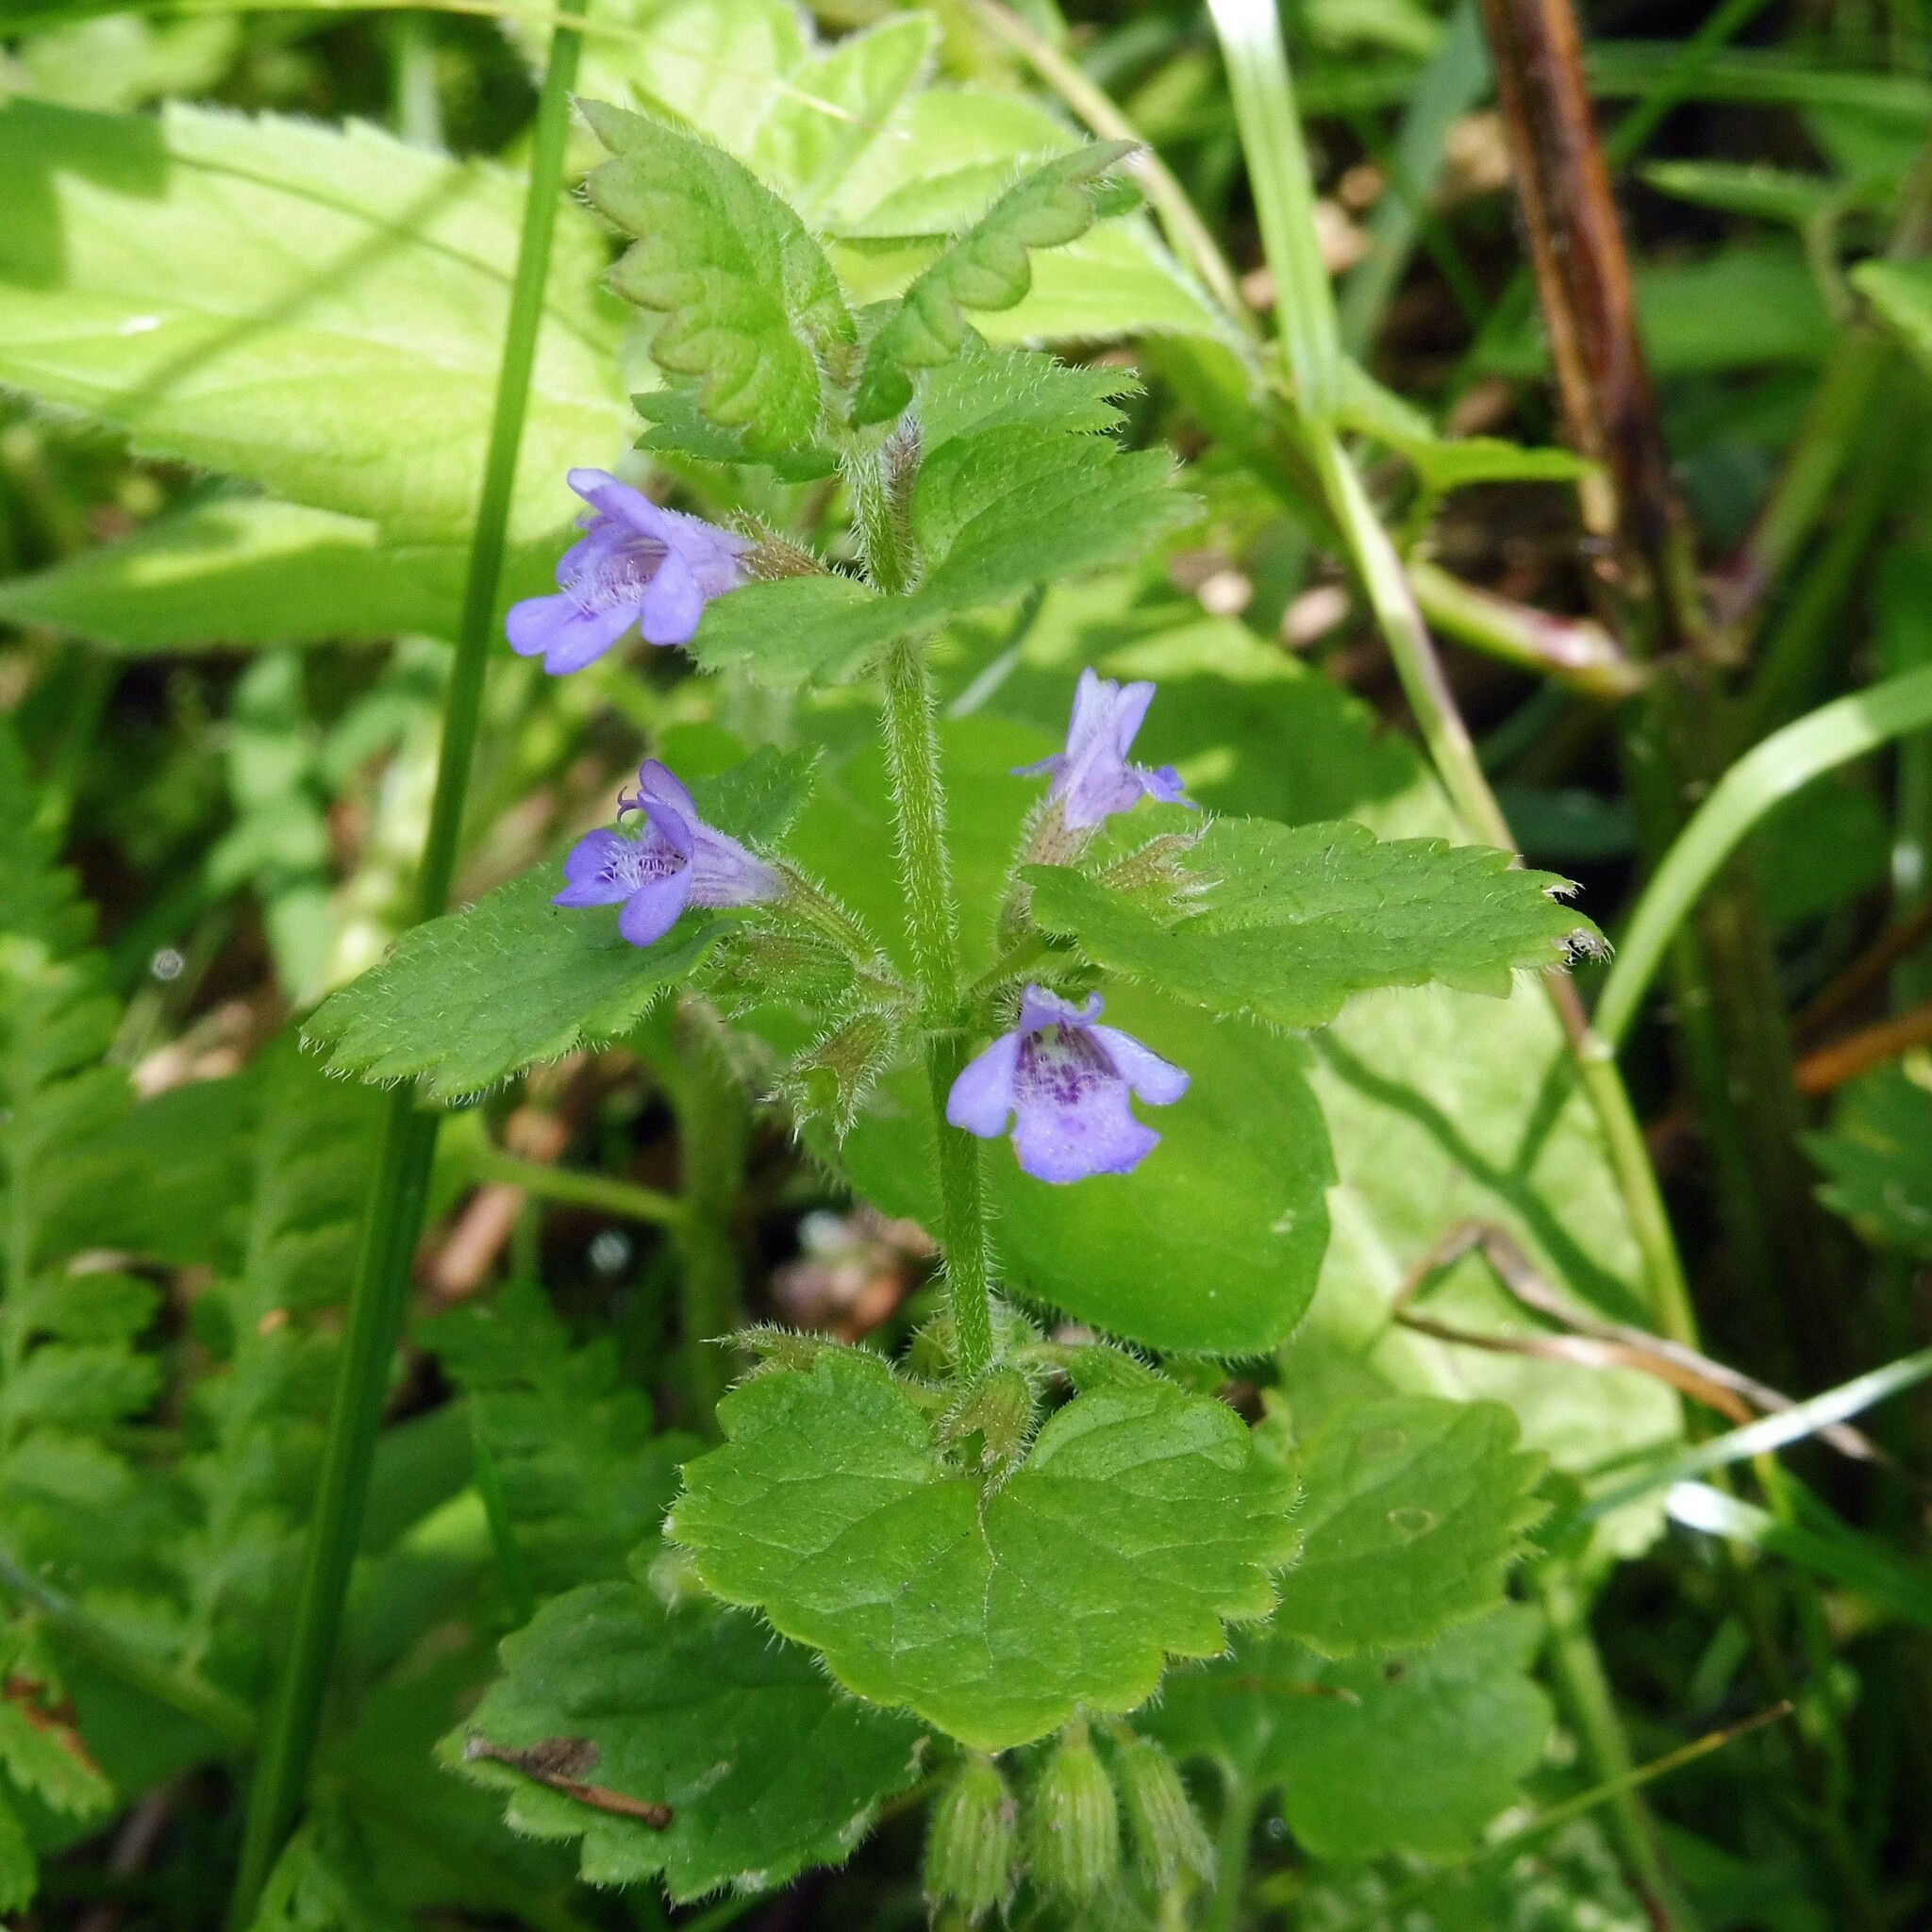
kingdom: Plantae
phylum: Tracheophyta
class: Magnoliopsida
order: Lamiales
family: Lamiaceae
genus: Glechoma
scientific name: Glechoma hederacea
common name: Ground ivy
